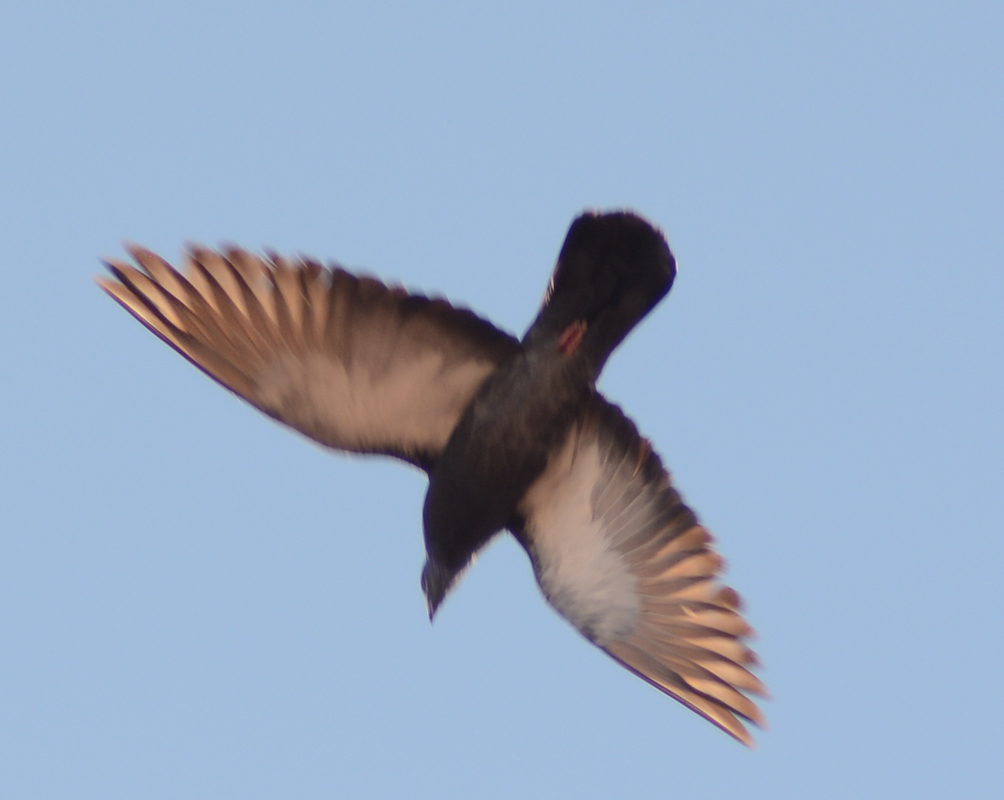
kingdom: Animalia
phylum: Chordata
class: Aves
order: Columbiformes
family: Columbidae
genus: Columba
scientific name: Columba livia
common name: Rock pigeon
